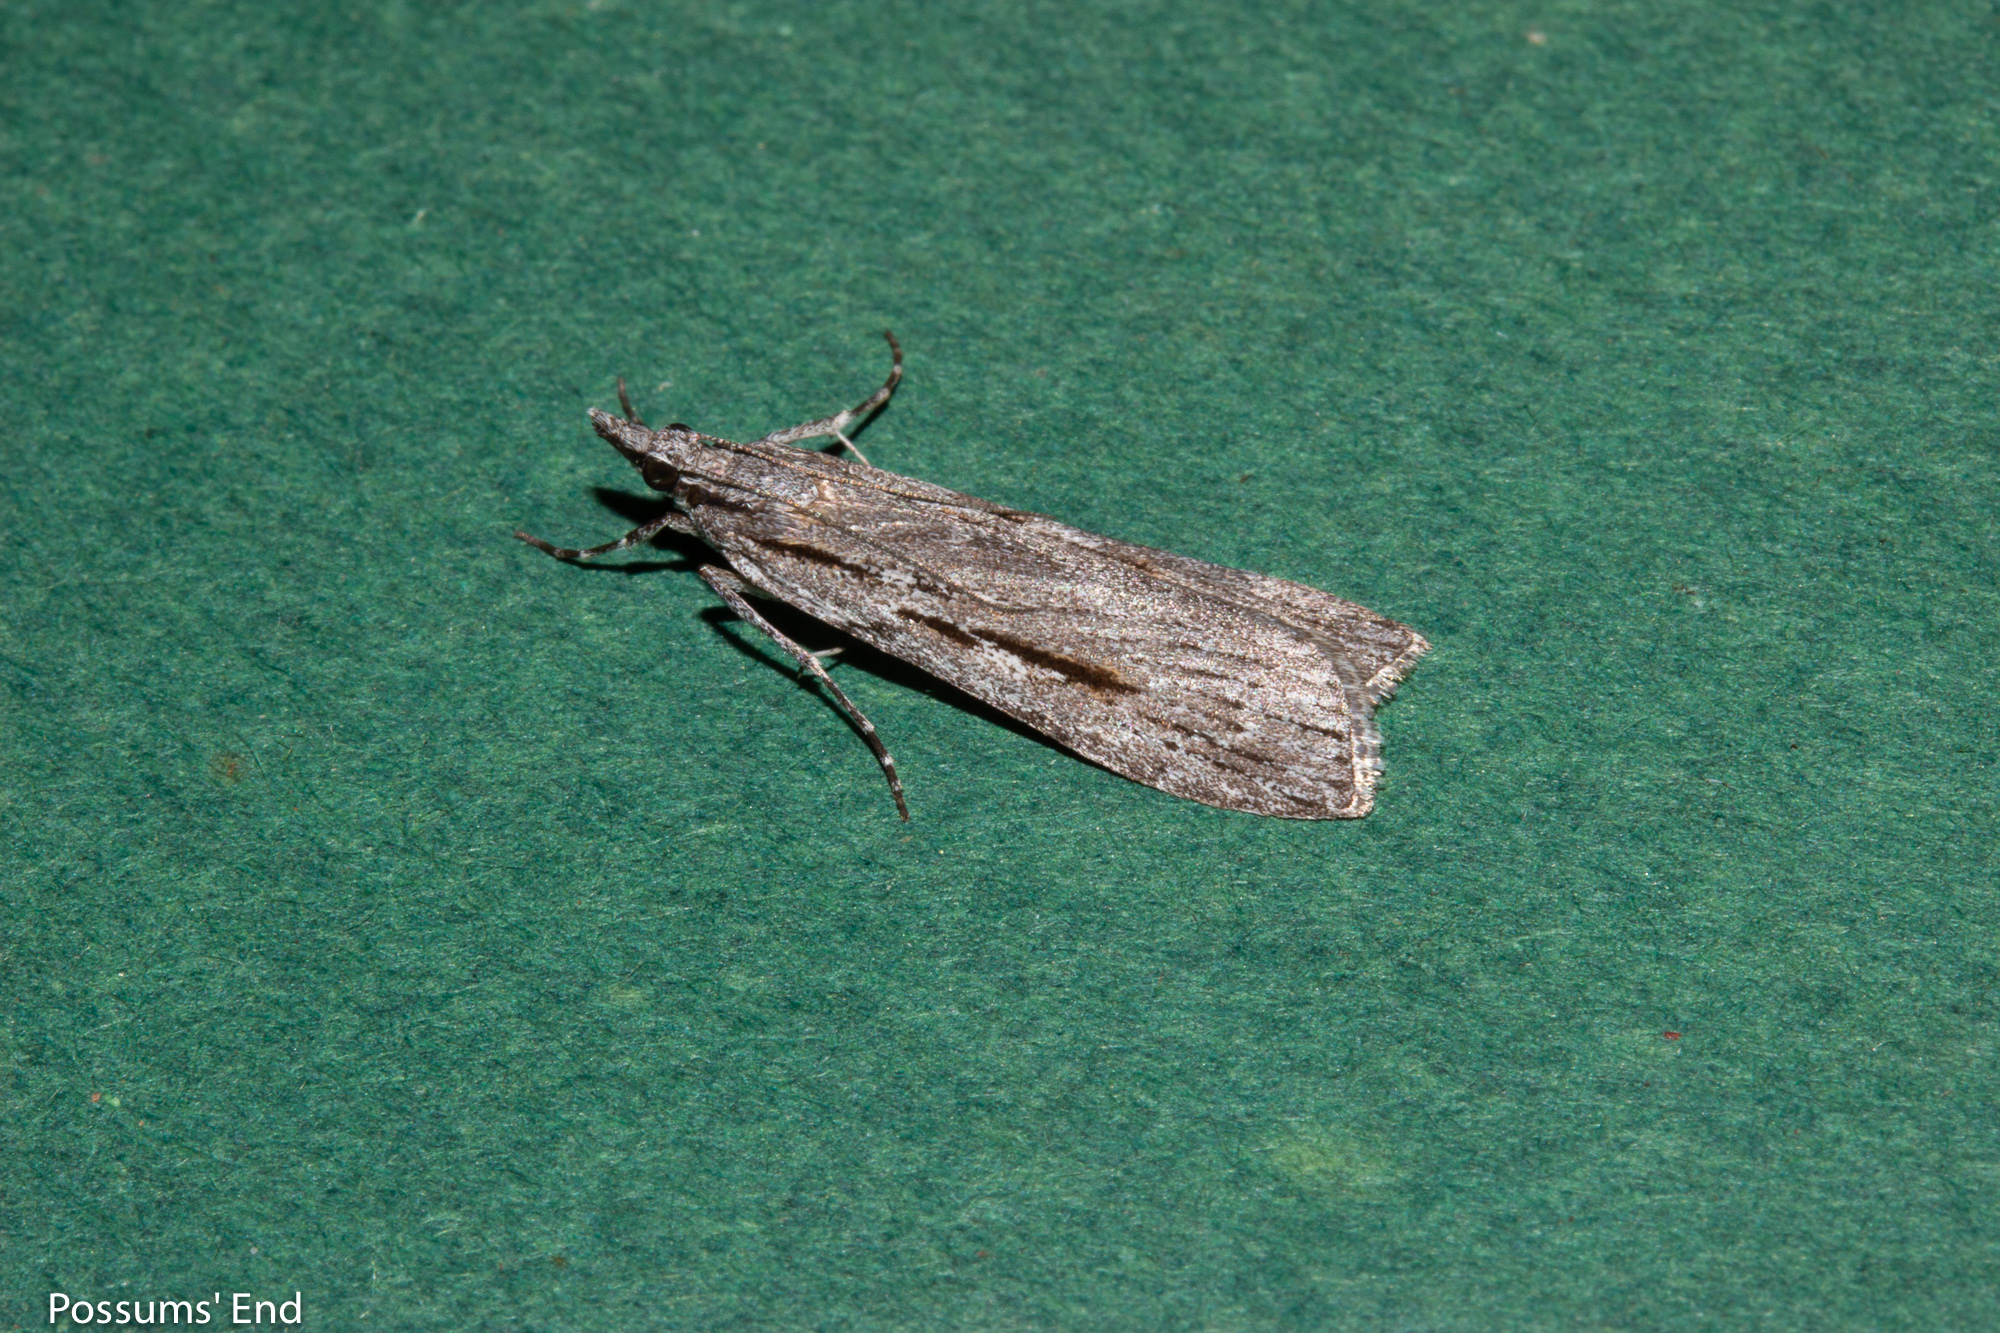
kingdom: Animalia
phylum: Arthropoda
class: Insecta
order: Lepidoptera
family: Crambidae
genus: Scoparia
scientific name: Scoparia indistinctalis
